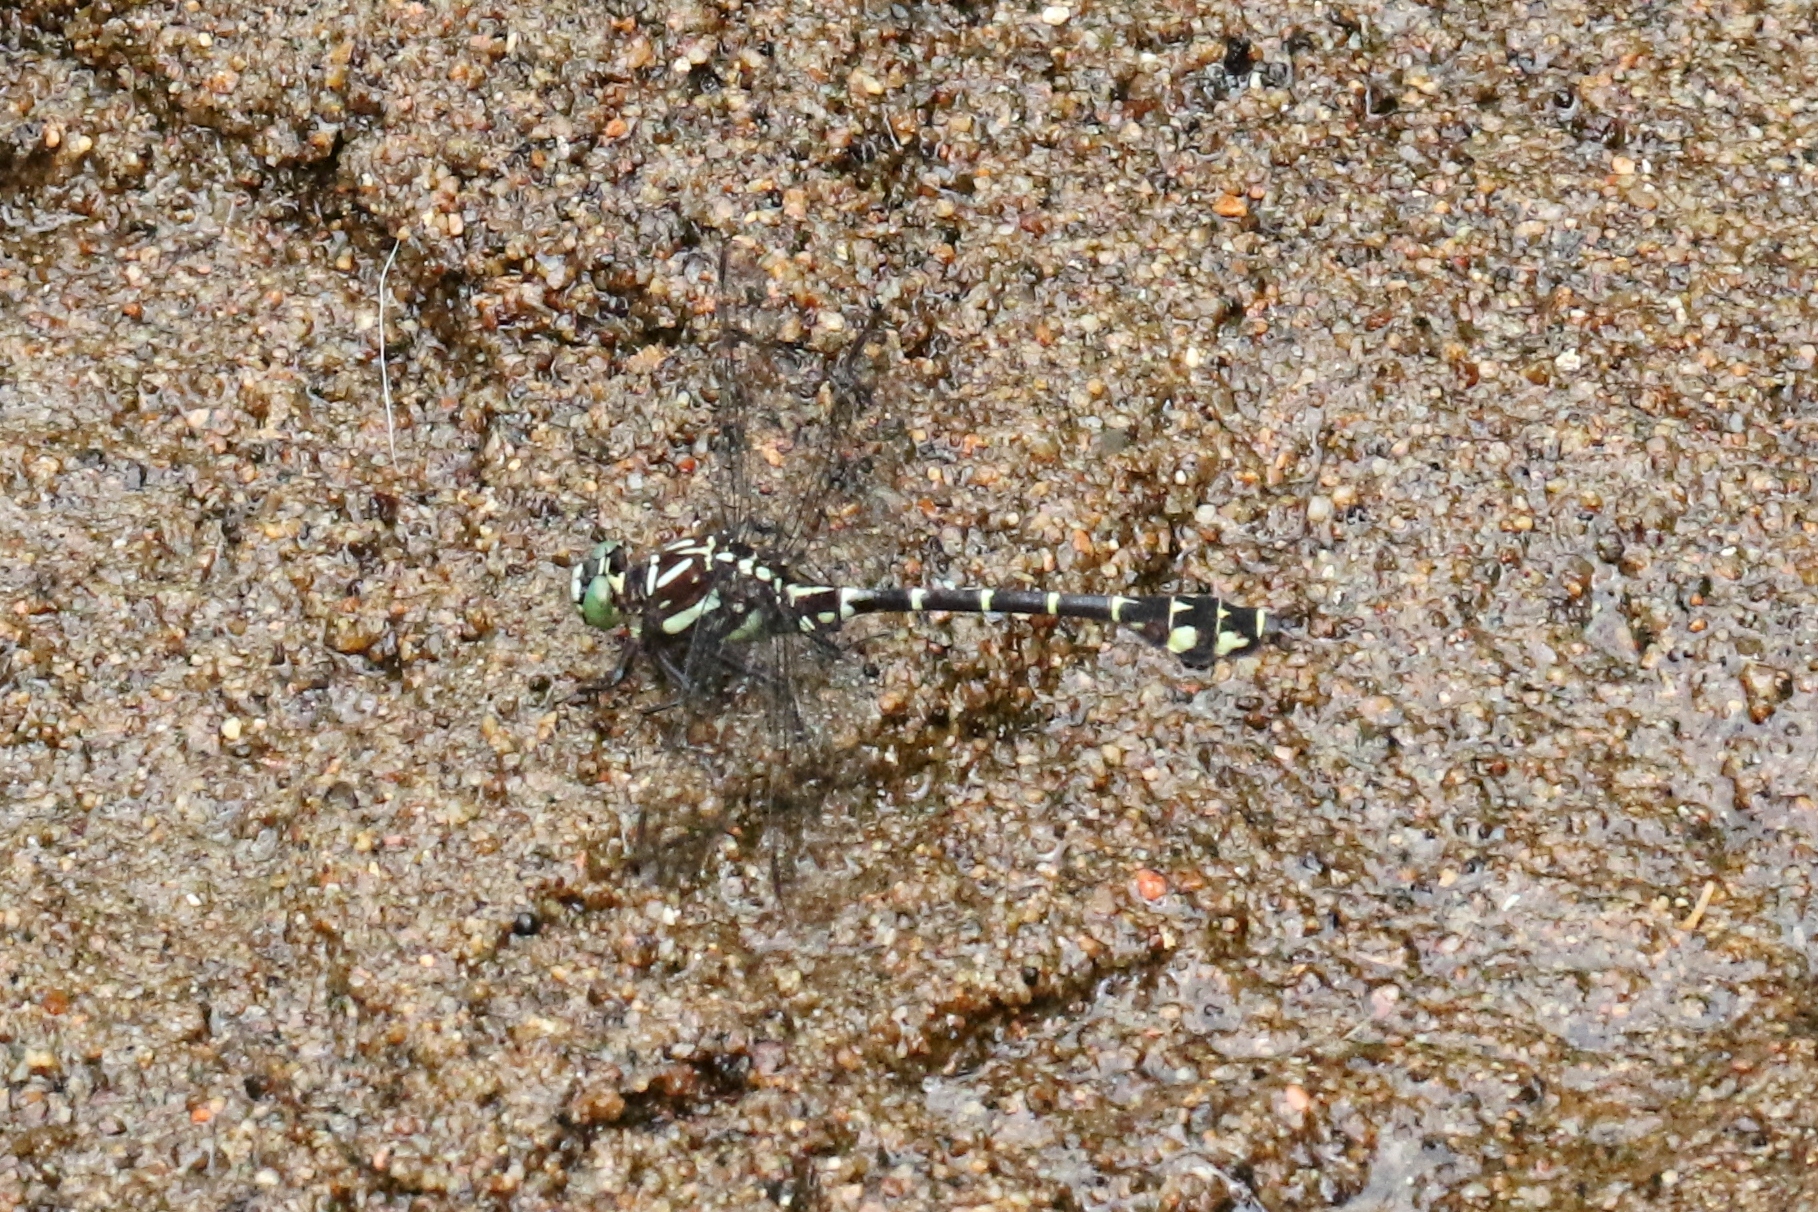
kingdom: Animalia
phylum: Arthropoda
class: Insecta
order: Odonata
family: Gomphidae
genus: Stylurus
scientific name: Stylurus scudderi
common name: Zebra clubtail
